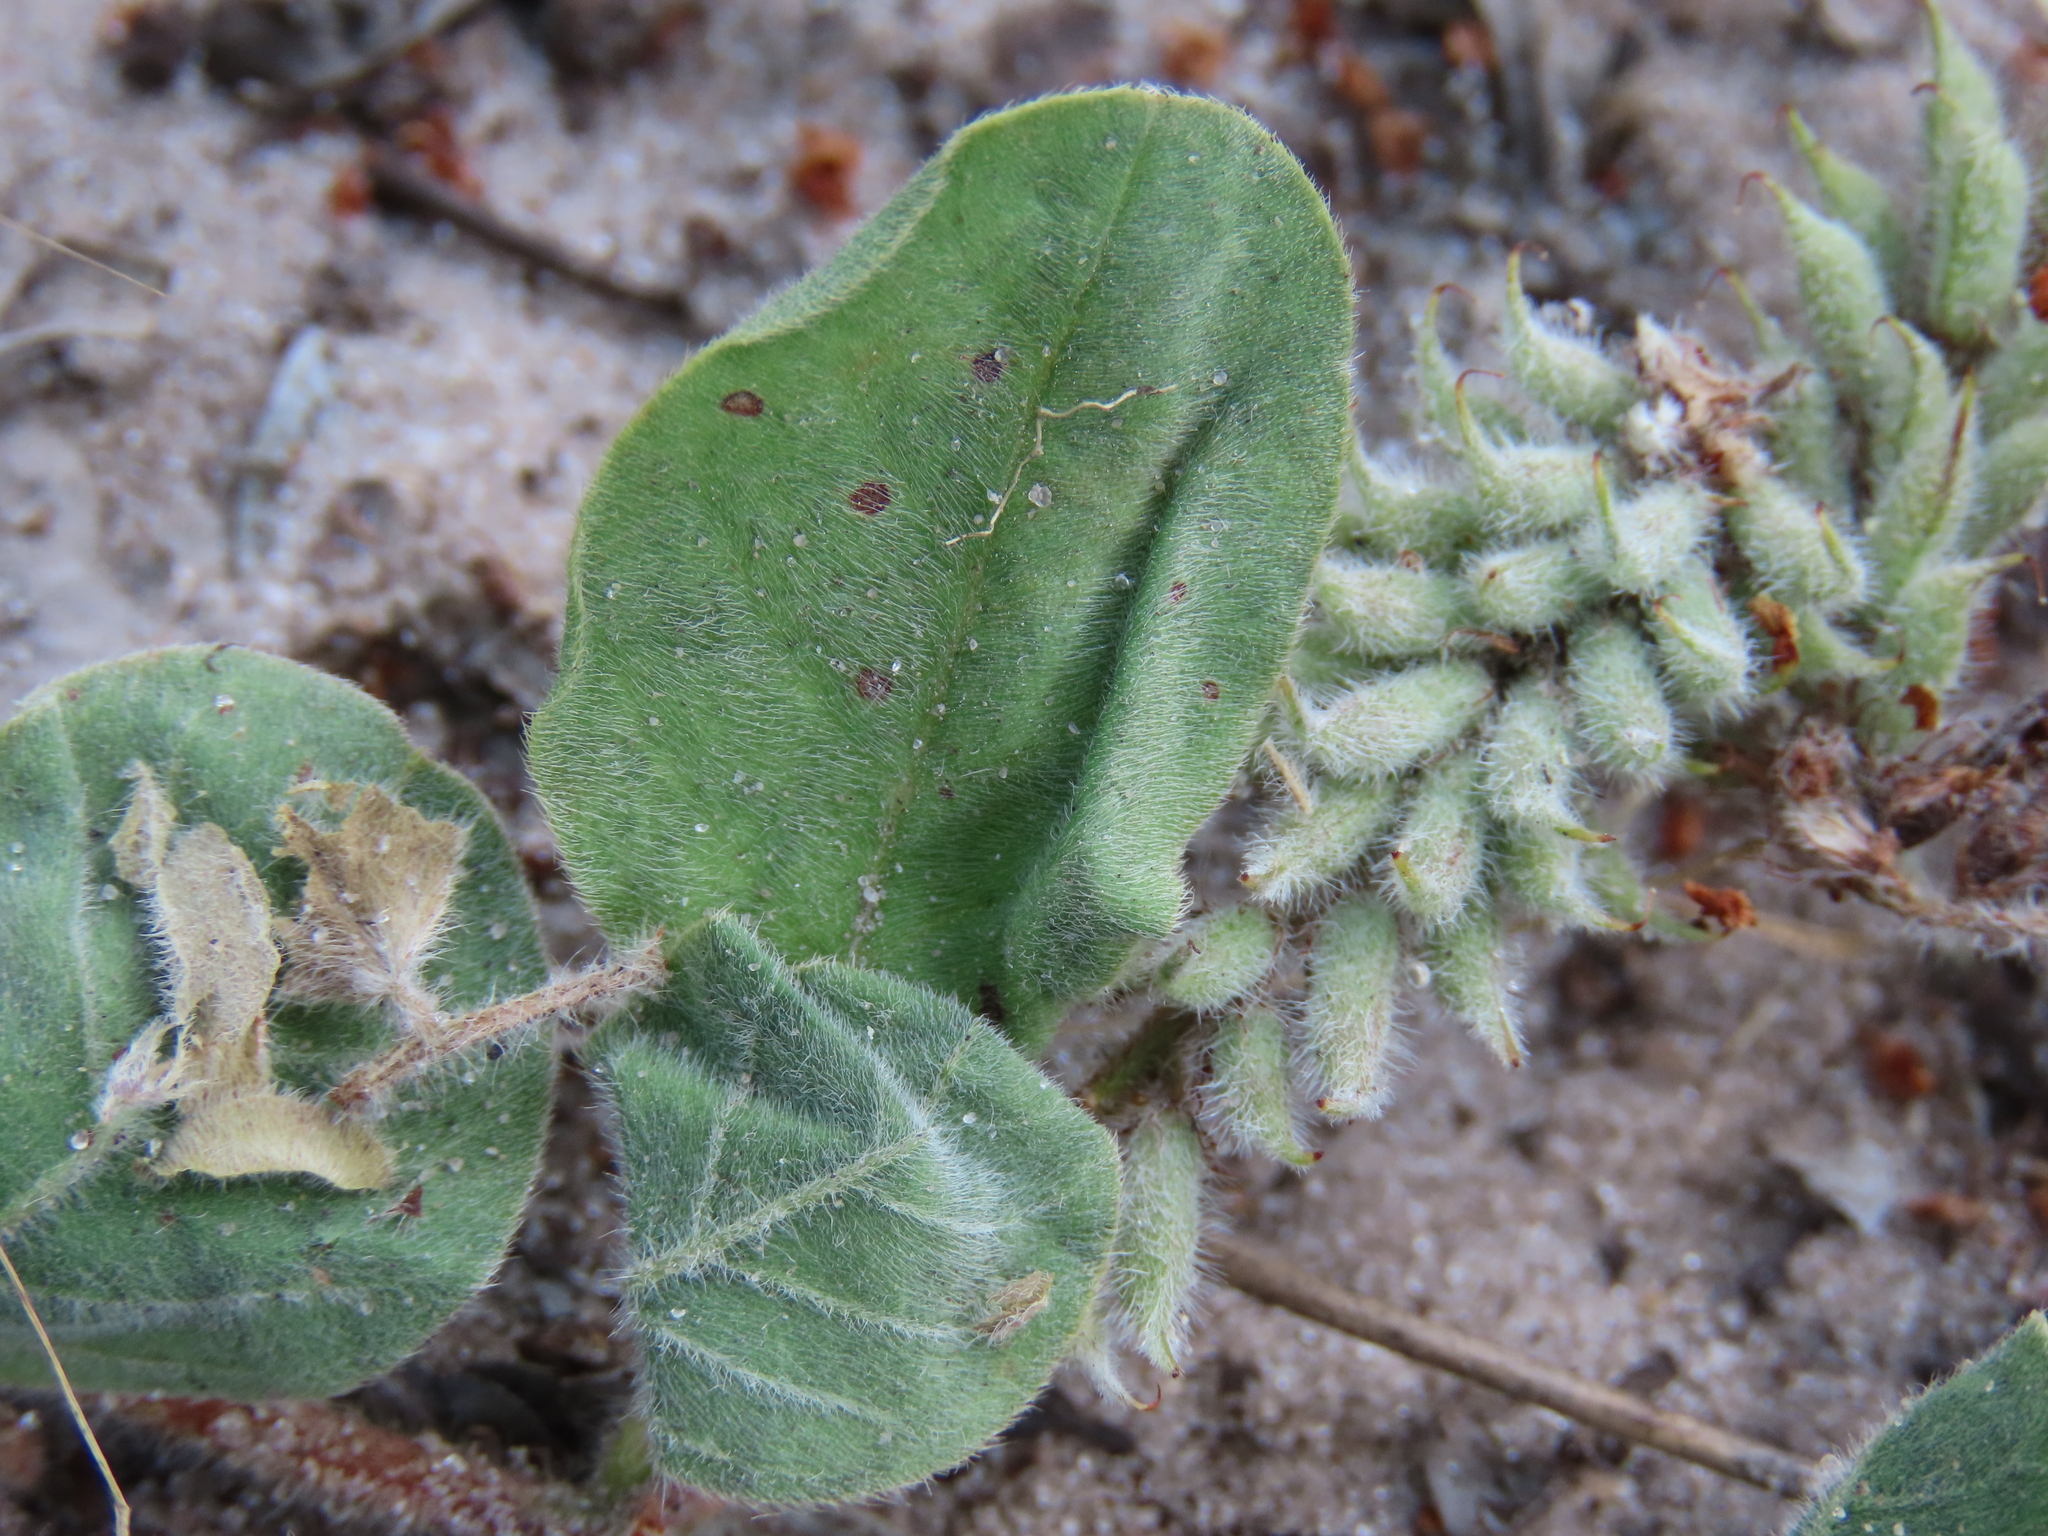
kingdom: Plantae
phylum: Tracheophyta
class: Magnoliopsida
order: Fabales
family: Fabaceae
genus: Indigofera
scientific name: Indigofera flavicans
